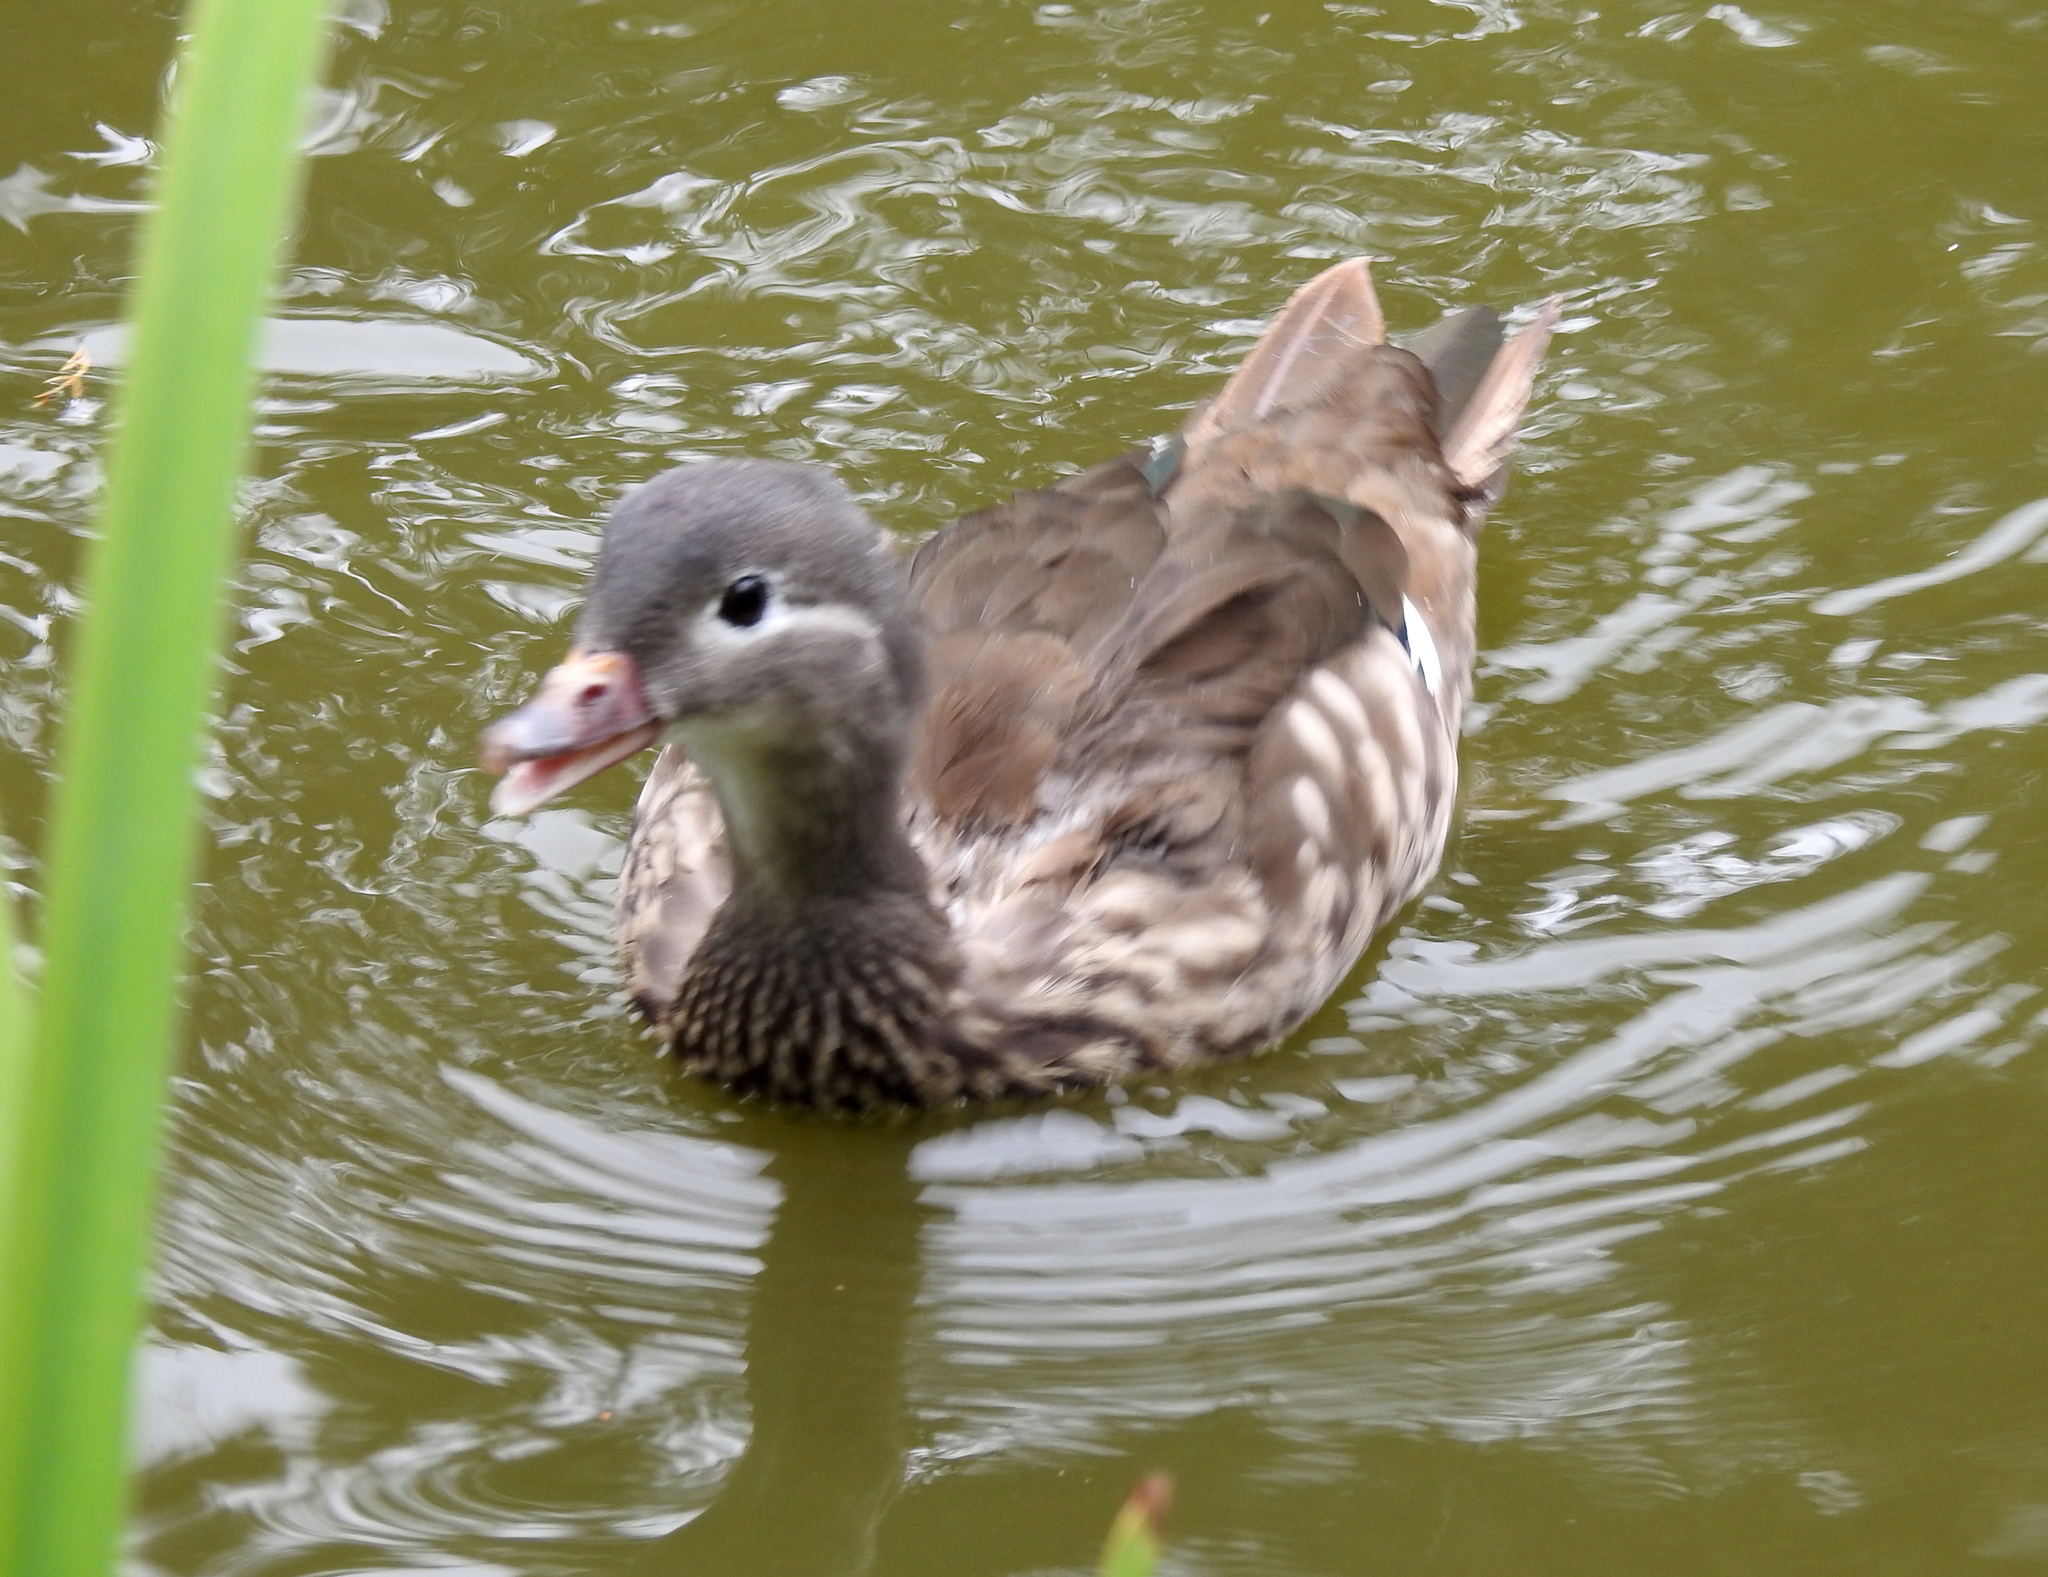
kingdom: Animalia
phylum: Chordata
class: Aves
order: Anseriformes
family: Anatidae
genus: Aix
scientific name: Aix galericulata
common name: Mandarin duck
